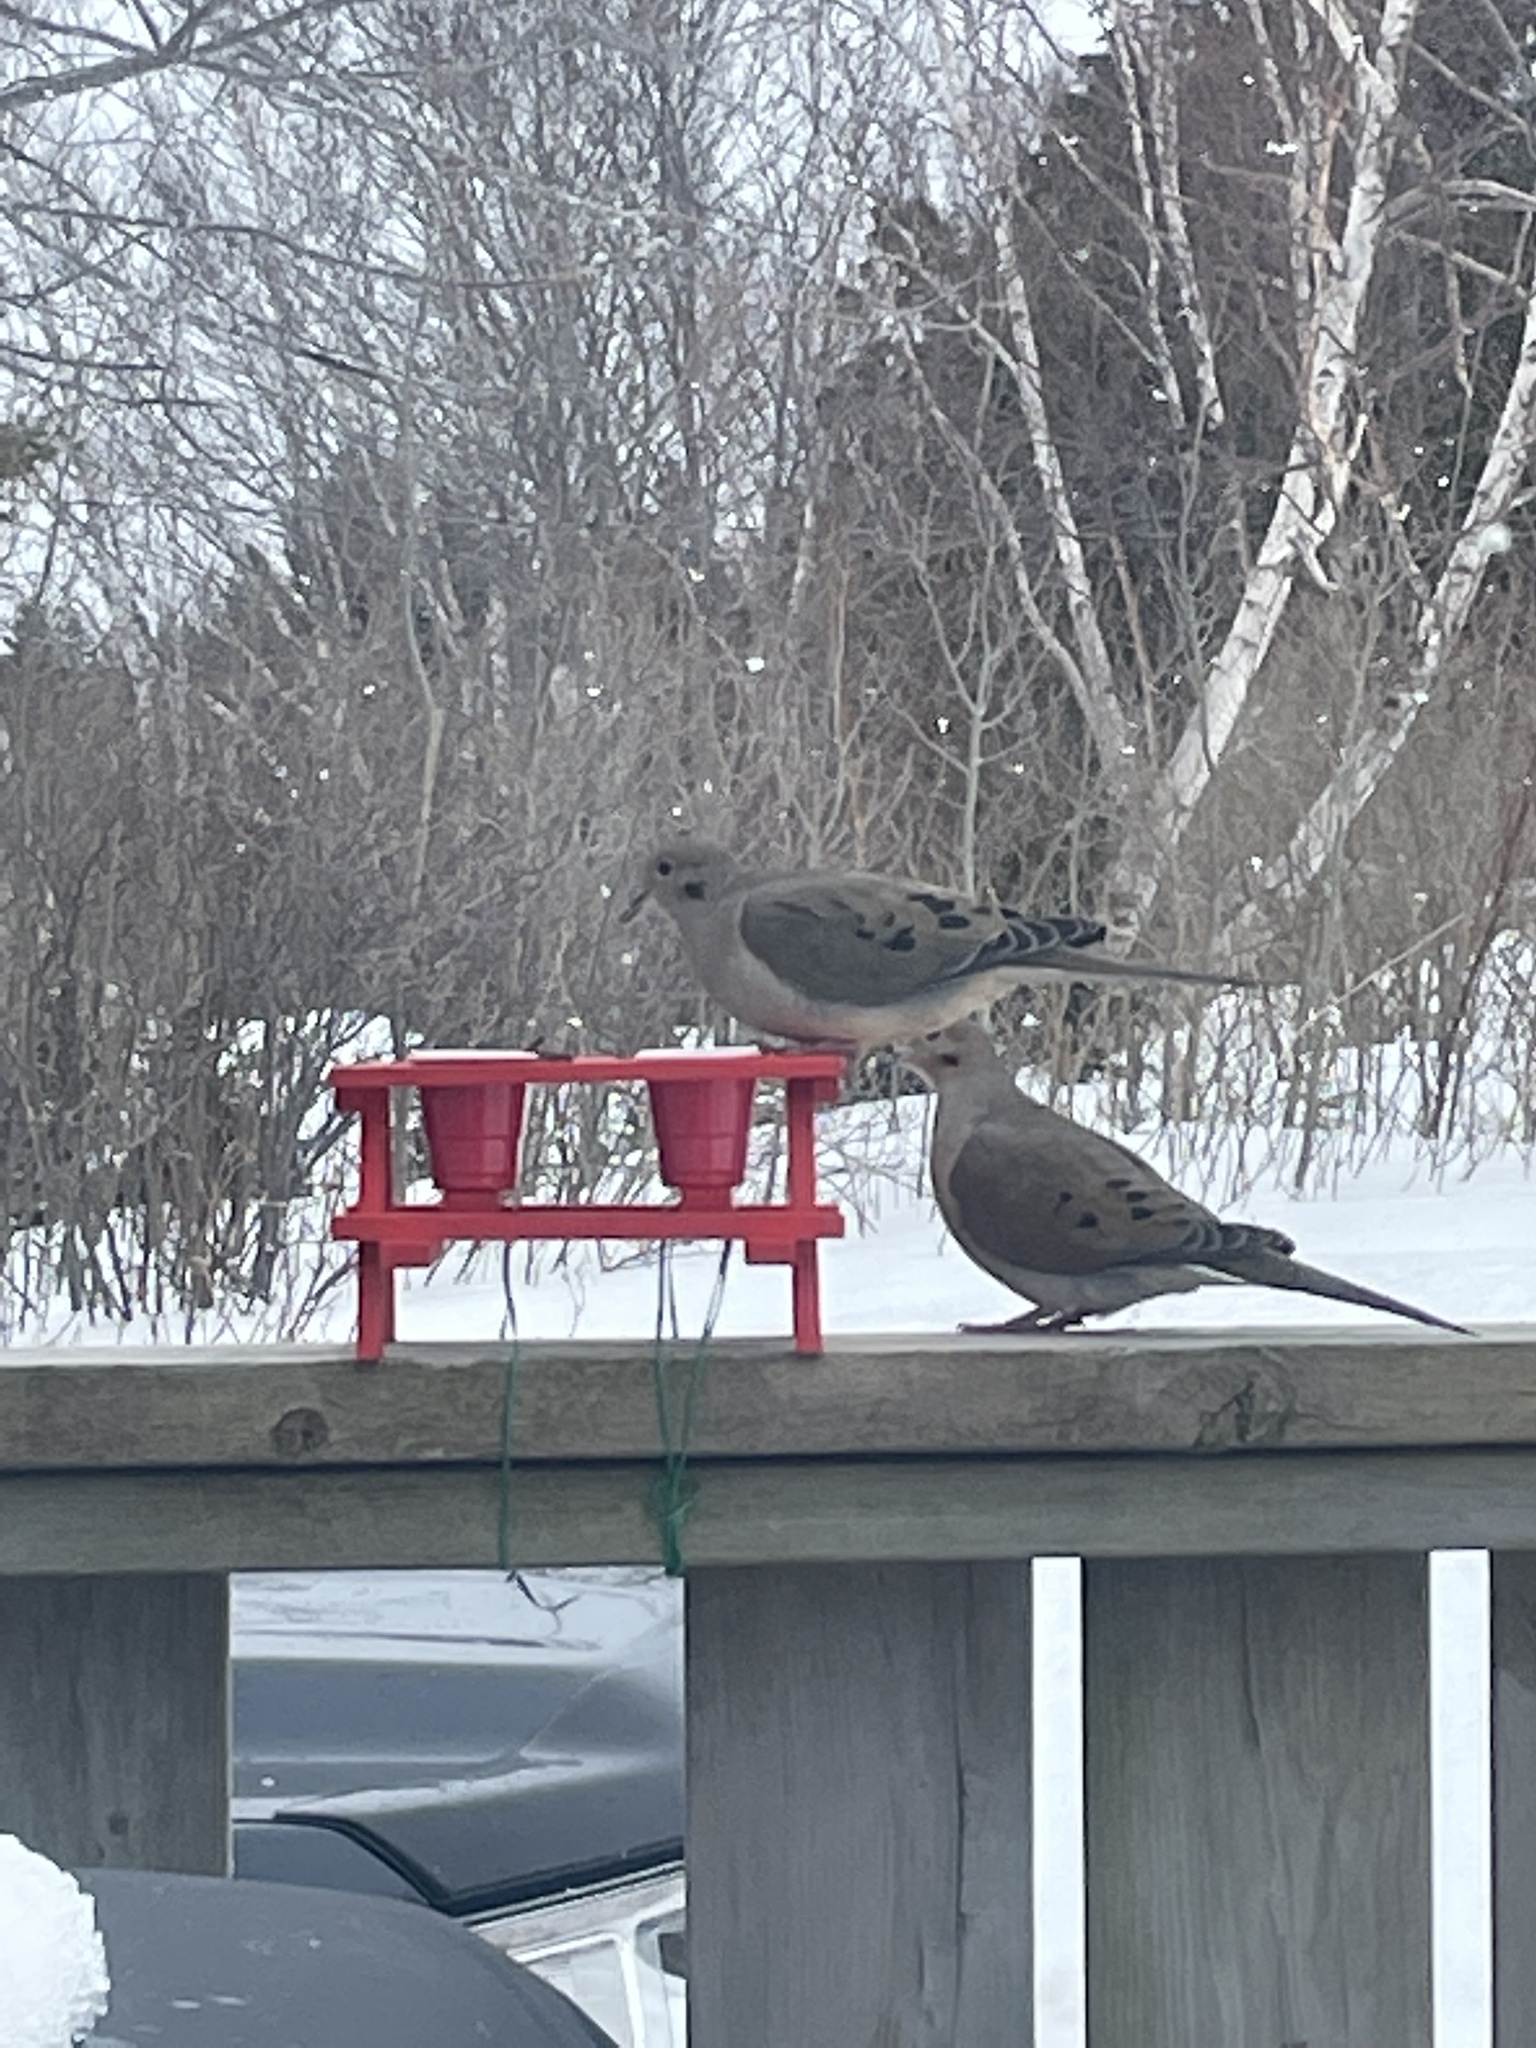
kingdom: Animalia
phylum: Chordata
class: Aves
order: Columbiformes
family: Columbidae
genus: Zenaida
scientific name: Zenaida macroura
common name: Mourning dove
